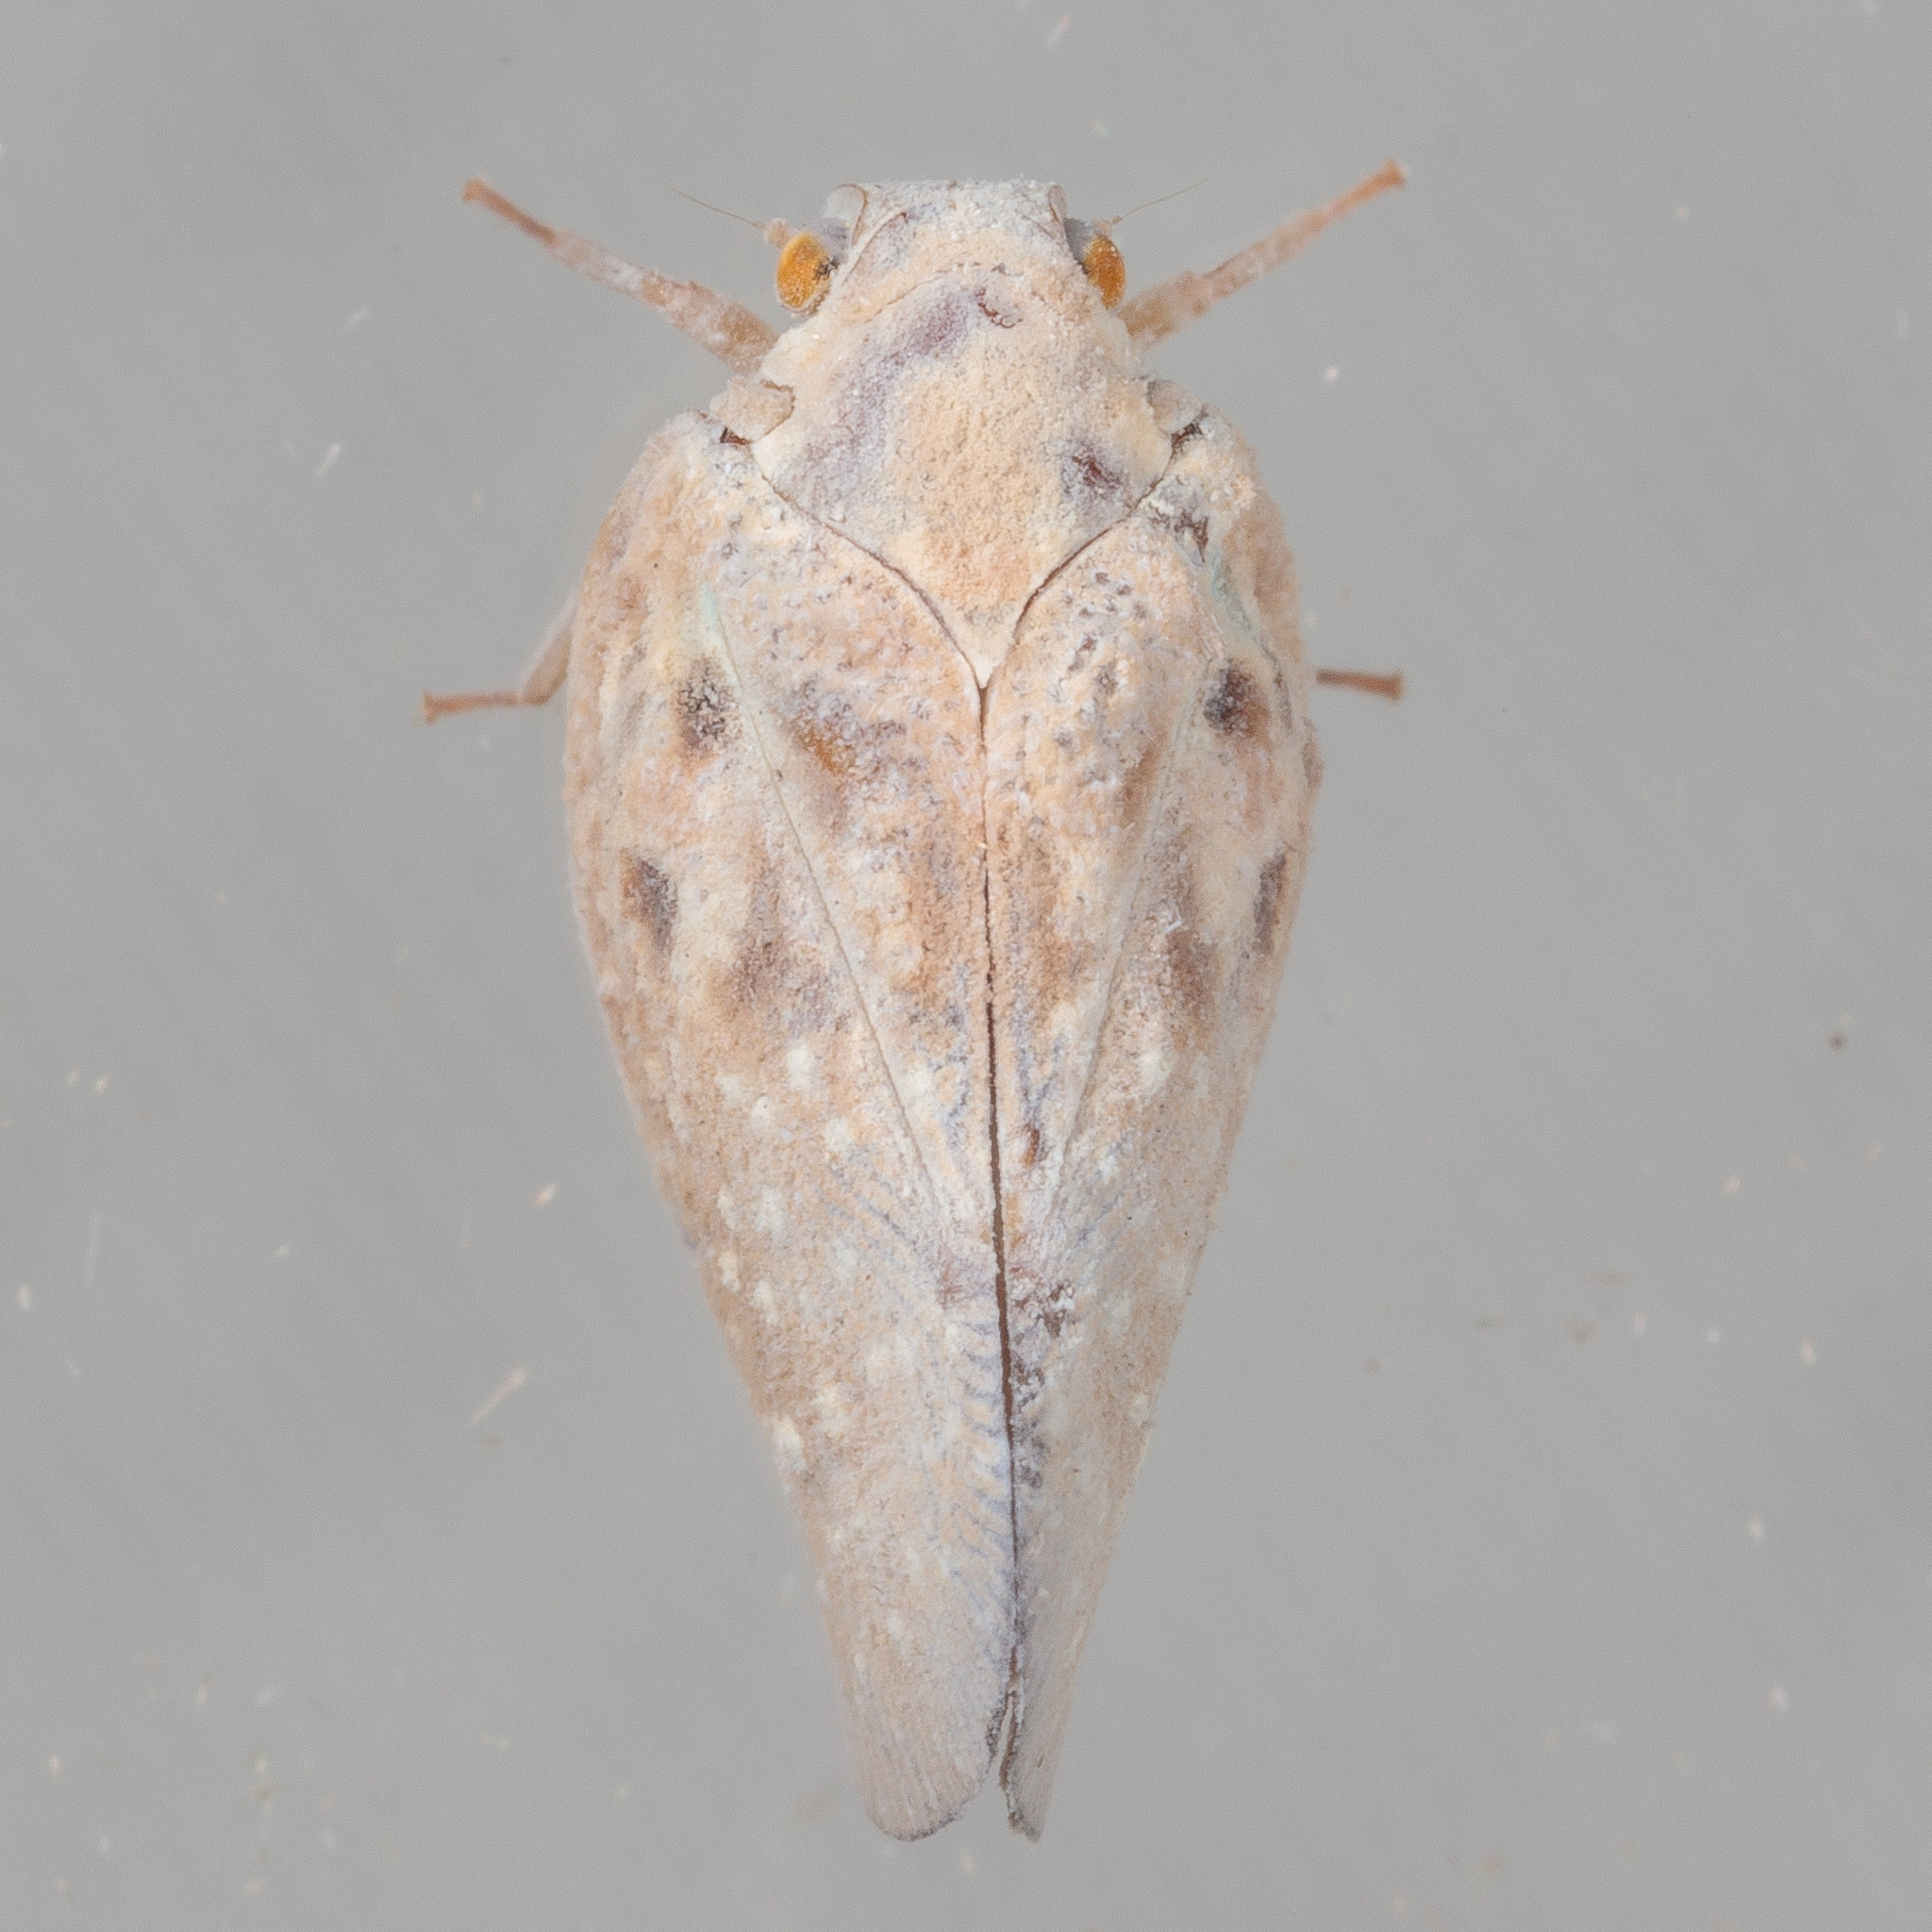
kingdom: Animalia
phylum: Arthropoda
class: Insecta
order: Hemiptera
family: Flatidae
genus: Metcalfa
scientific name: Metcalfa pruinosa
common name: Citrus flatid planthopper
